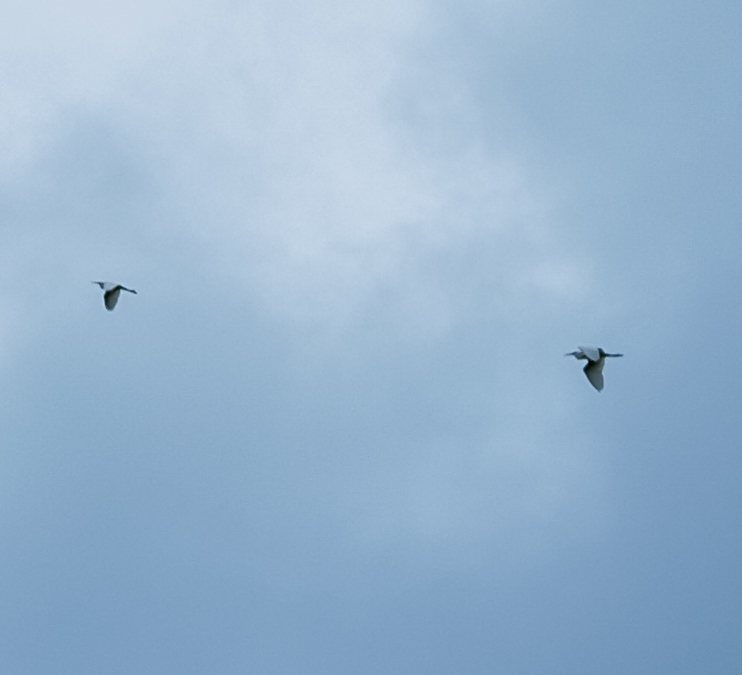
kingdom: Animalia
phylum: Chordata
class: Aves
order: Pelecaniformes
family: Ardeidae
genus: Egretta
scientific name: Egretta garzetta
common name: Little egret
